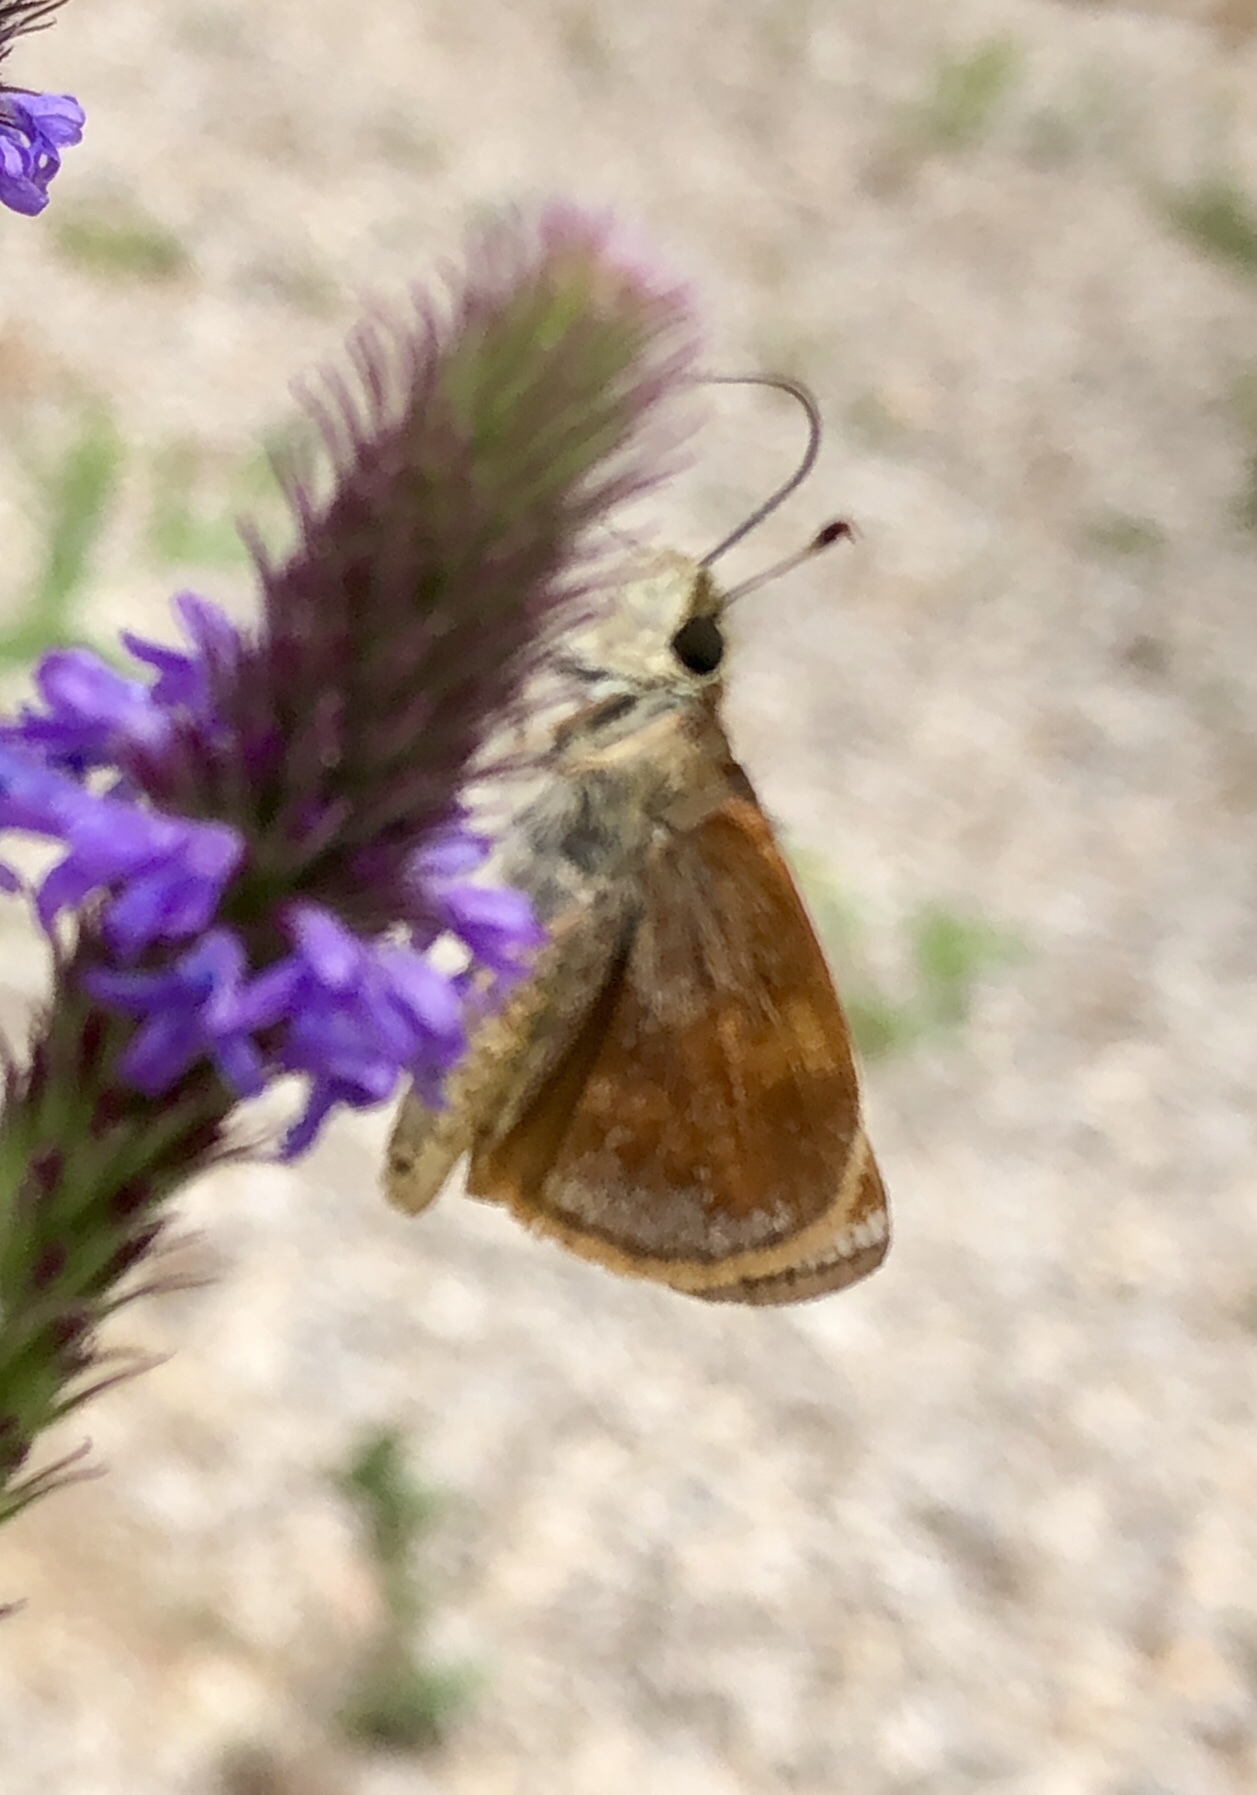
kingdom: Animalia
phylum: Arthropoda
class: Insecta
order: Lepidoptera
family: Hesperiidae
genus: Lon
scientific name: Lon taxiles
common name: Taxiles skipper
